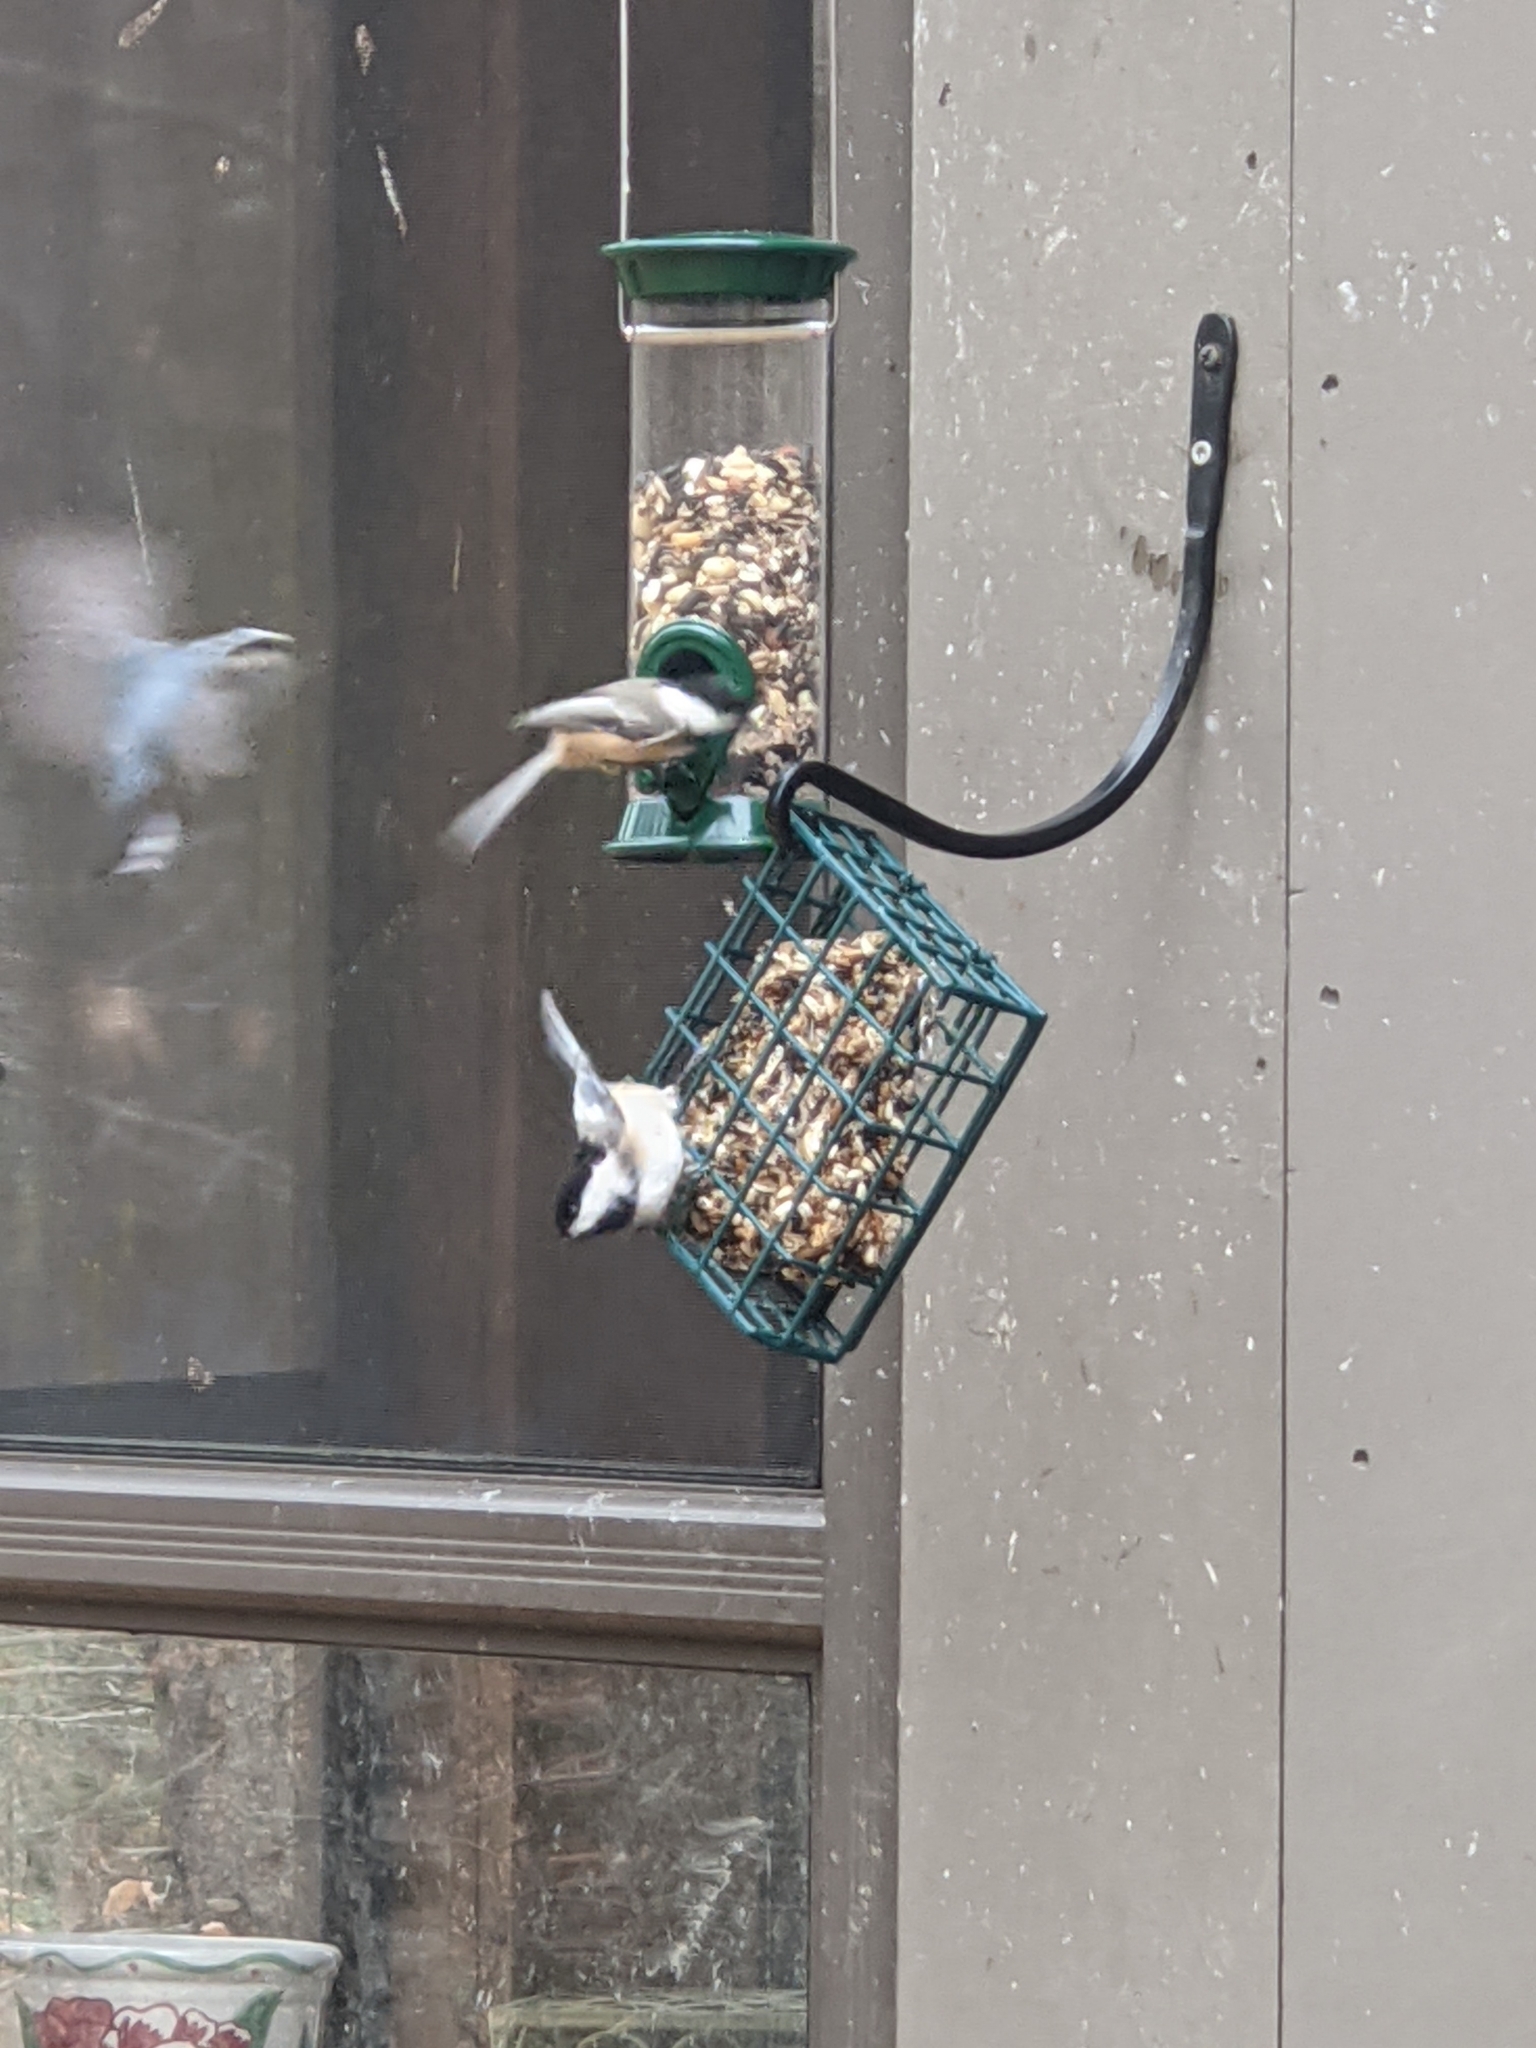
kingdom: Animalia
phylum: Chordata
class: Aves
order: Passeriformes
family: Paridae
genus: Poecile
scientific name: Poecile atricapillus
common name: Black-capped chickadee
